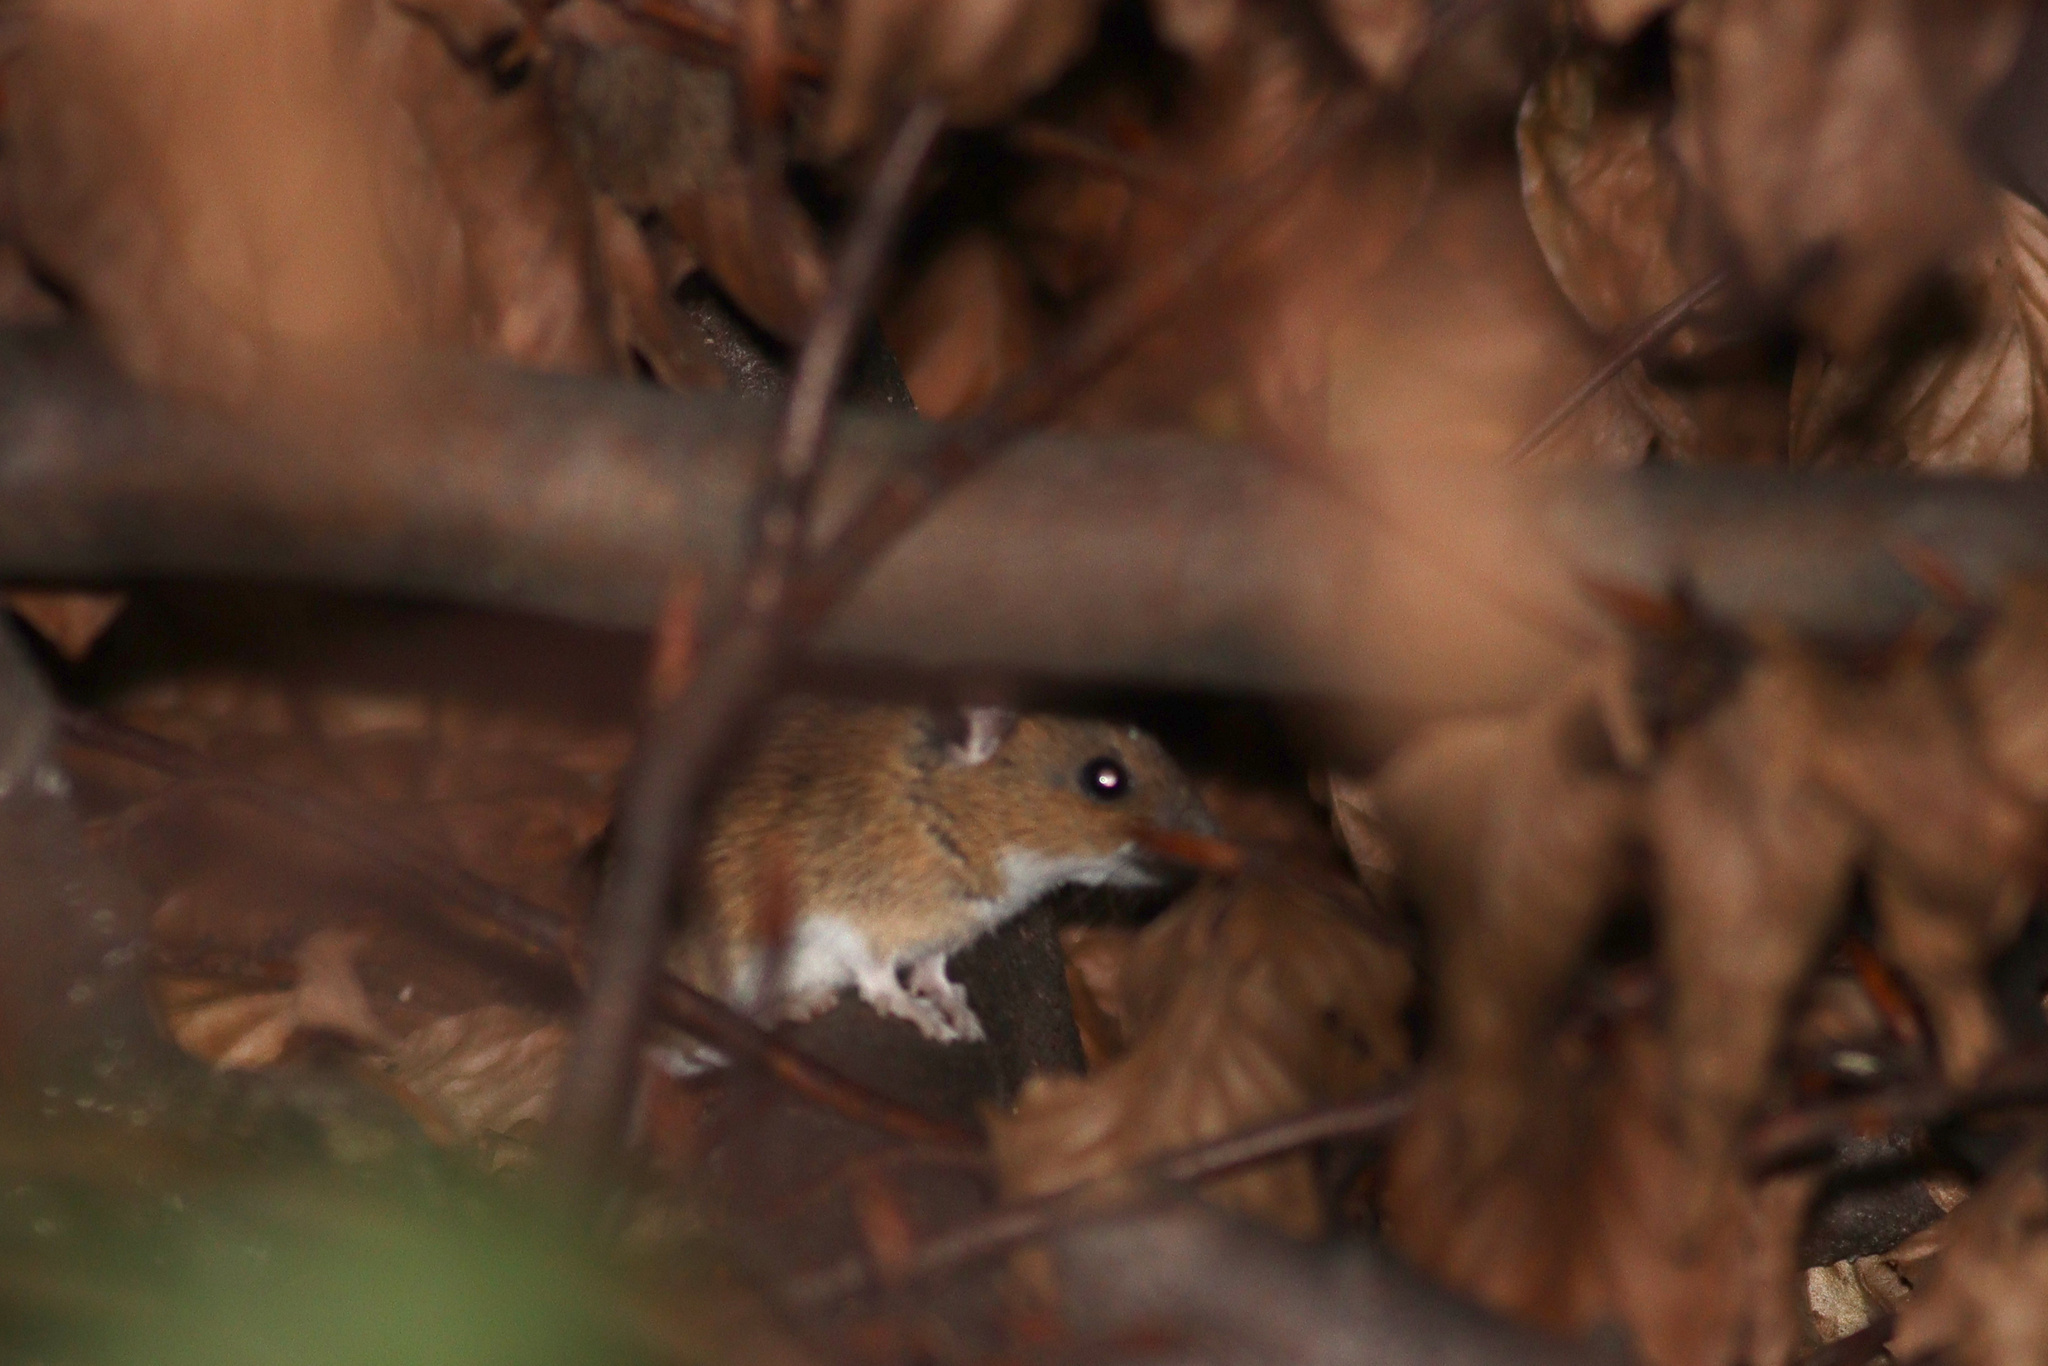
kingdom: Animalia
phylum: Chordata
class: Mammalia
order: Rodentia
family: Muridae
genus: Apodemus
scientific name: Apodemus flavicollis
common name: Yellow-necked field mouse
